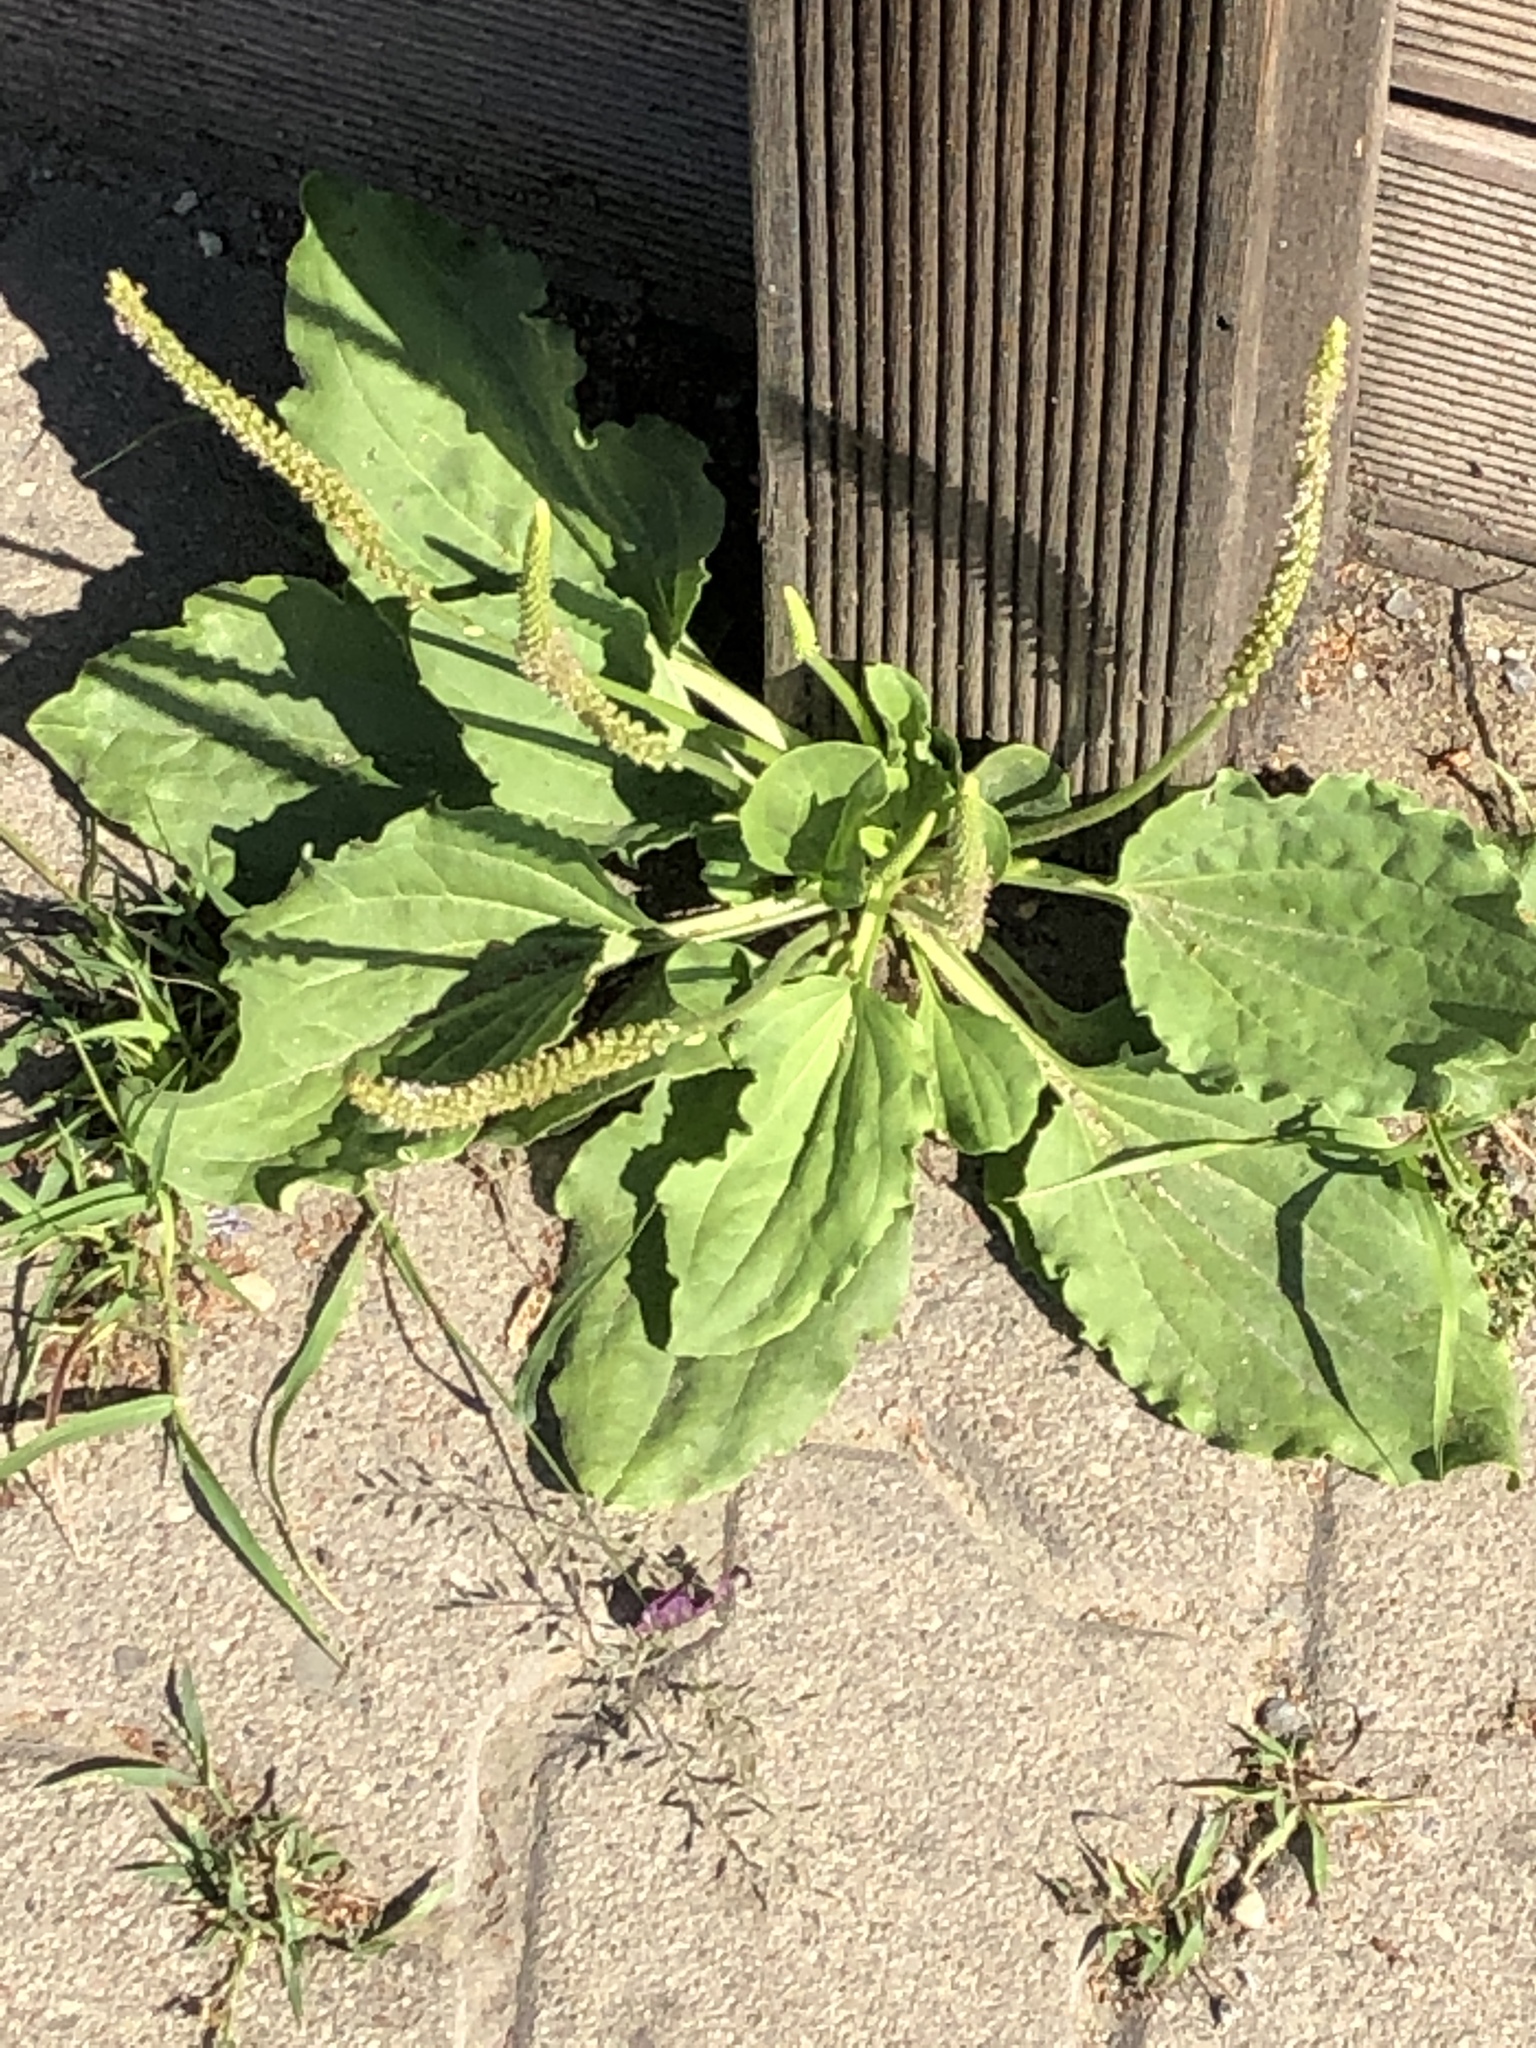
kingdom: Plantae
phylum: Tracheophyta
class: Magnoliopsida
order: Lamiales
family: Plantaginaceae
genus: Plantago
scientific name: Plantago major
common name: Common plantain
